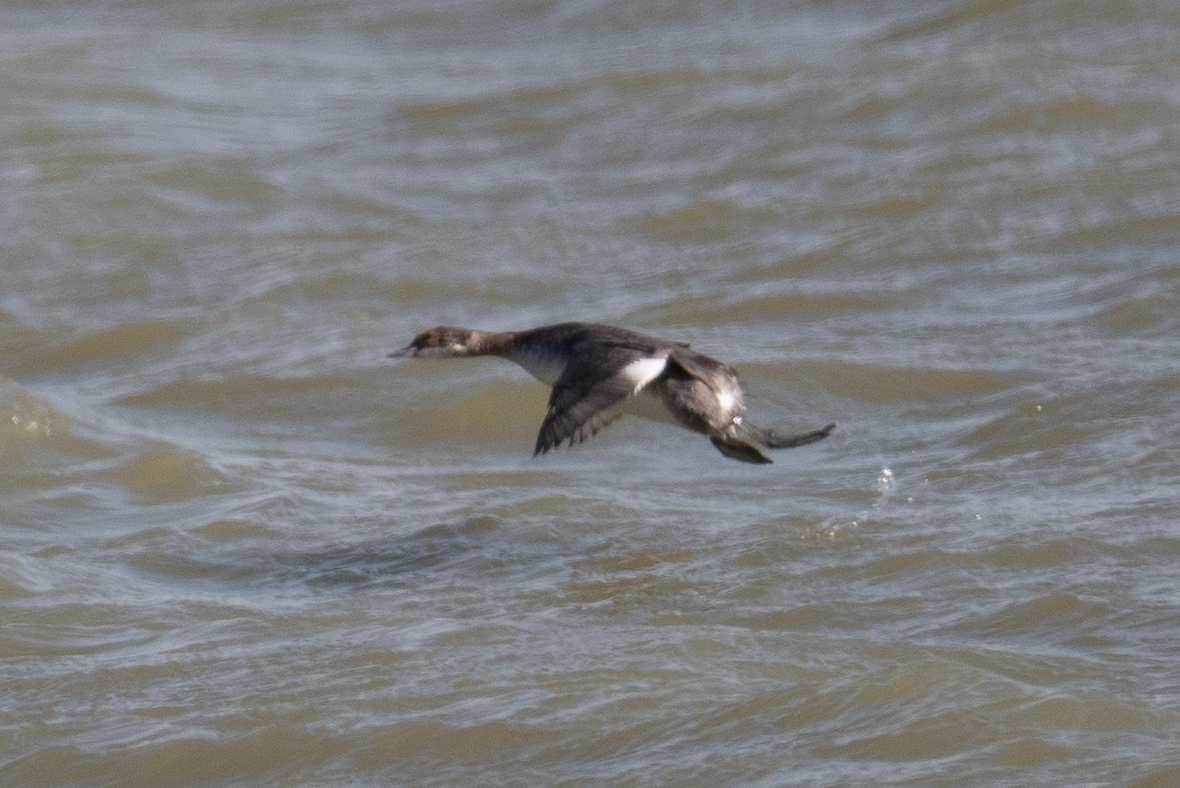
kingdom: Animalia
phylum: Chordata
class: Aves
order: Podicipediformes
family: Podicipedidae
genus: Podiceps
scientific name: Podiceps nigricollis
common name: Black-necked grebe
